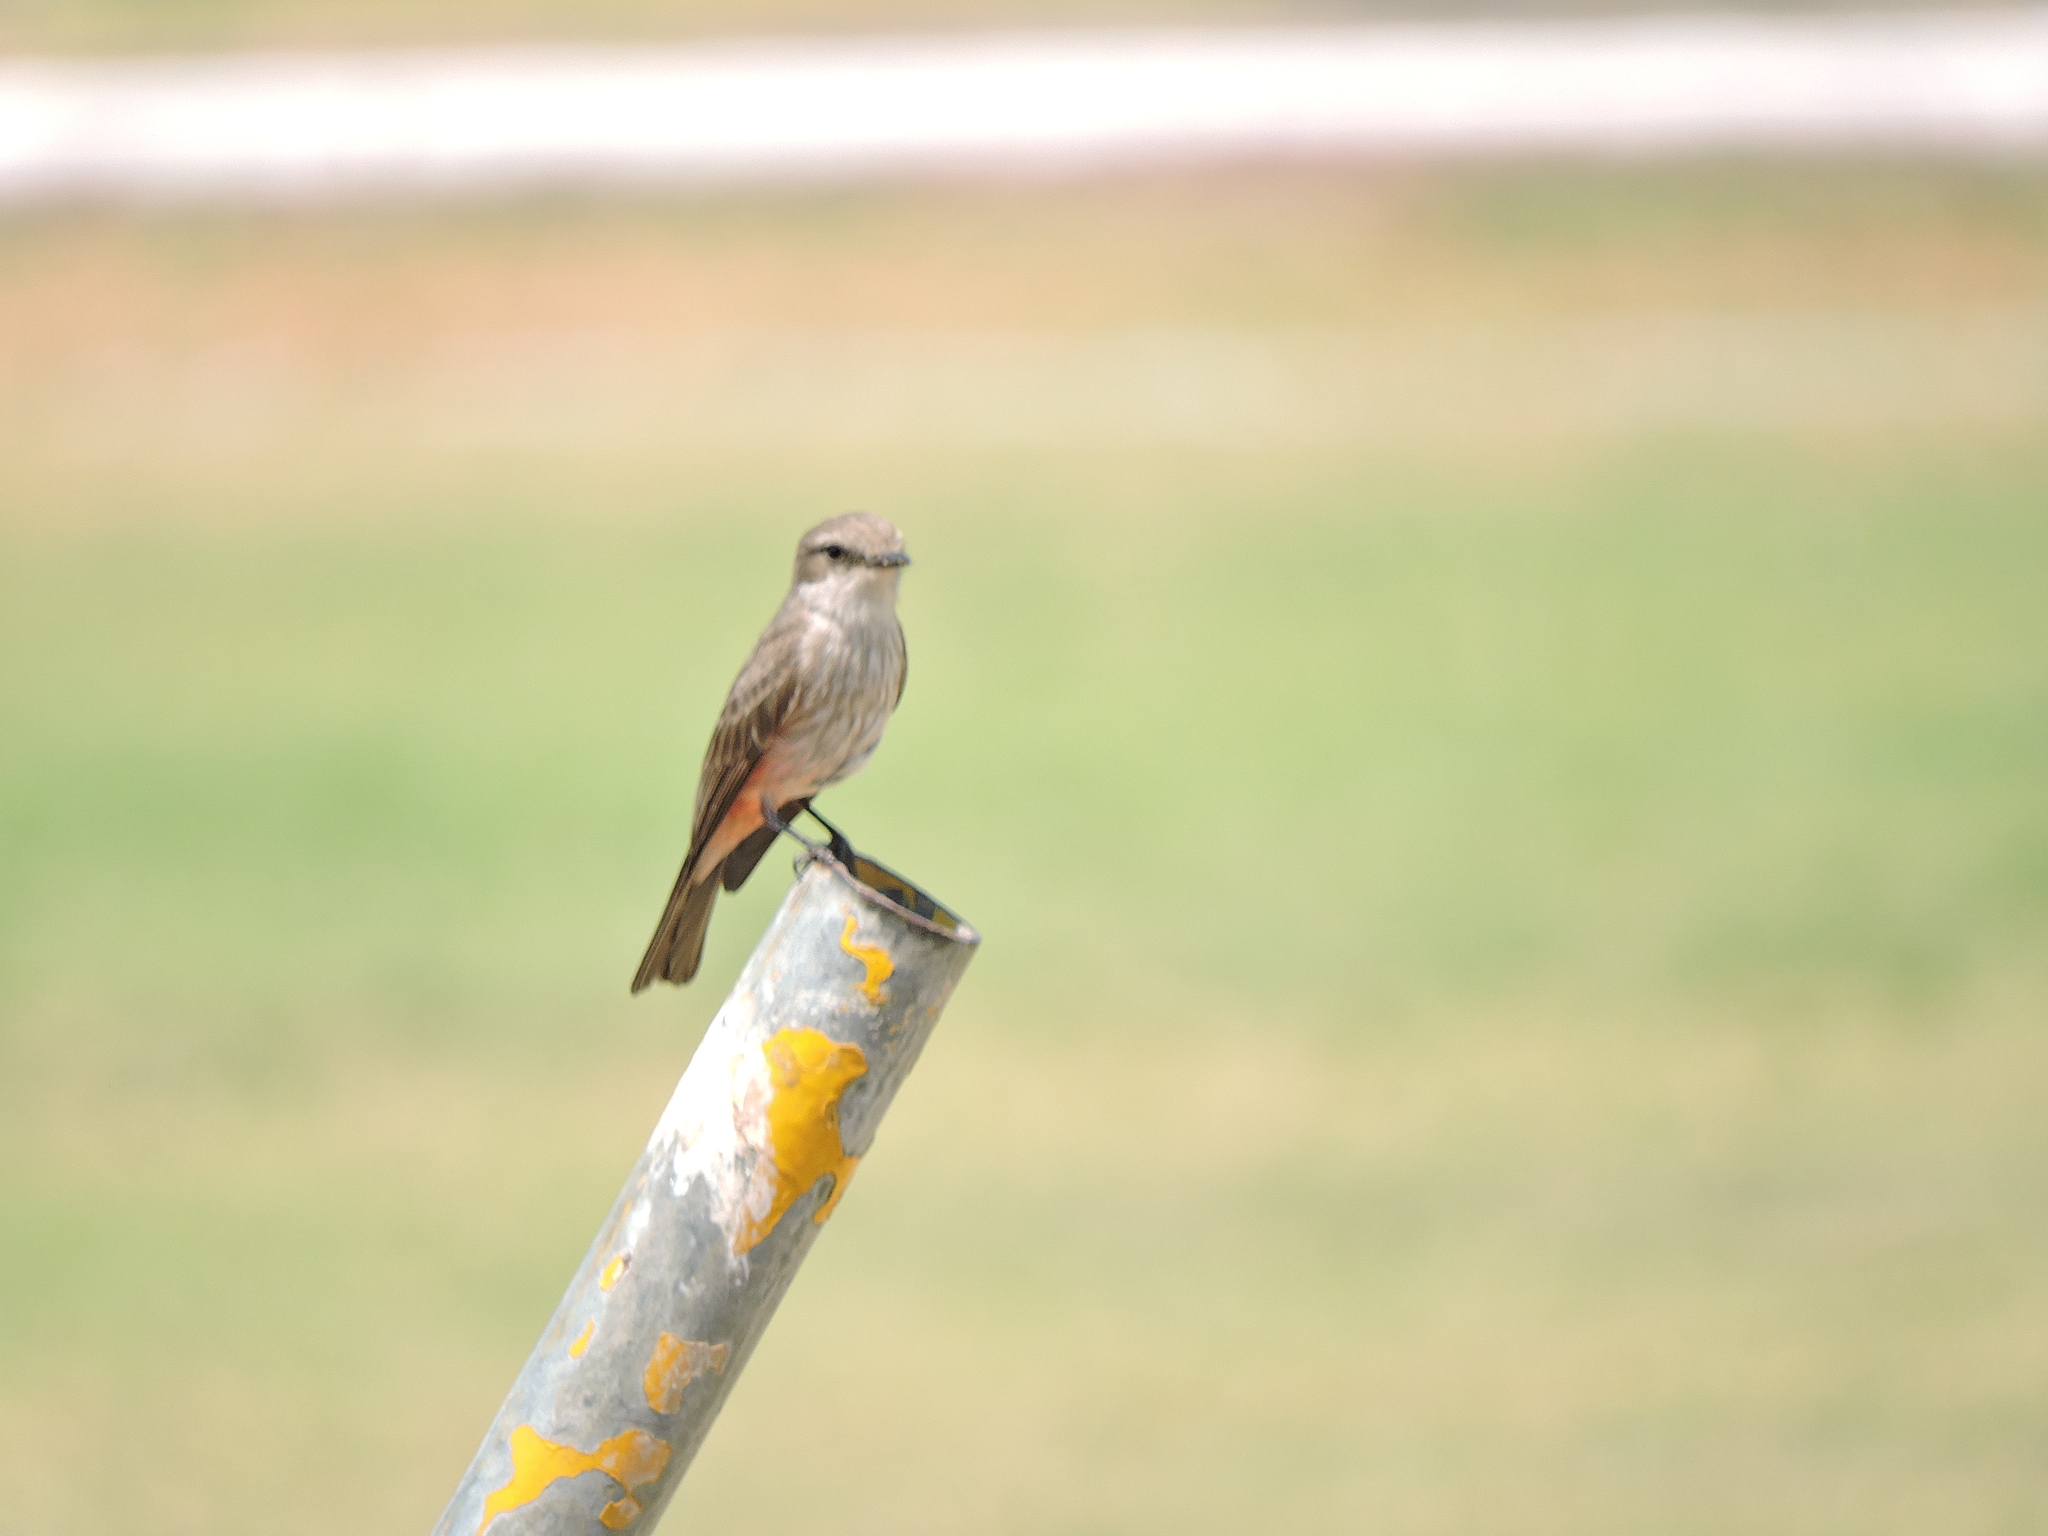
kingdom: Animalia
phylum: Chordata
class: Aves
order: Passeriformes
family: Tyrannidae
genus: Pyrocephalus
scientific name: Pyrocephalus rubinus
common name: Vermilion flycatcher
